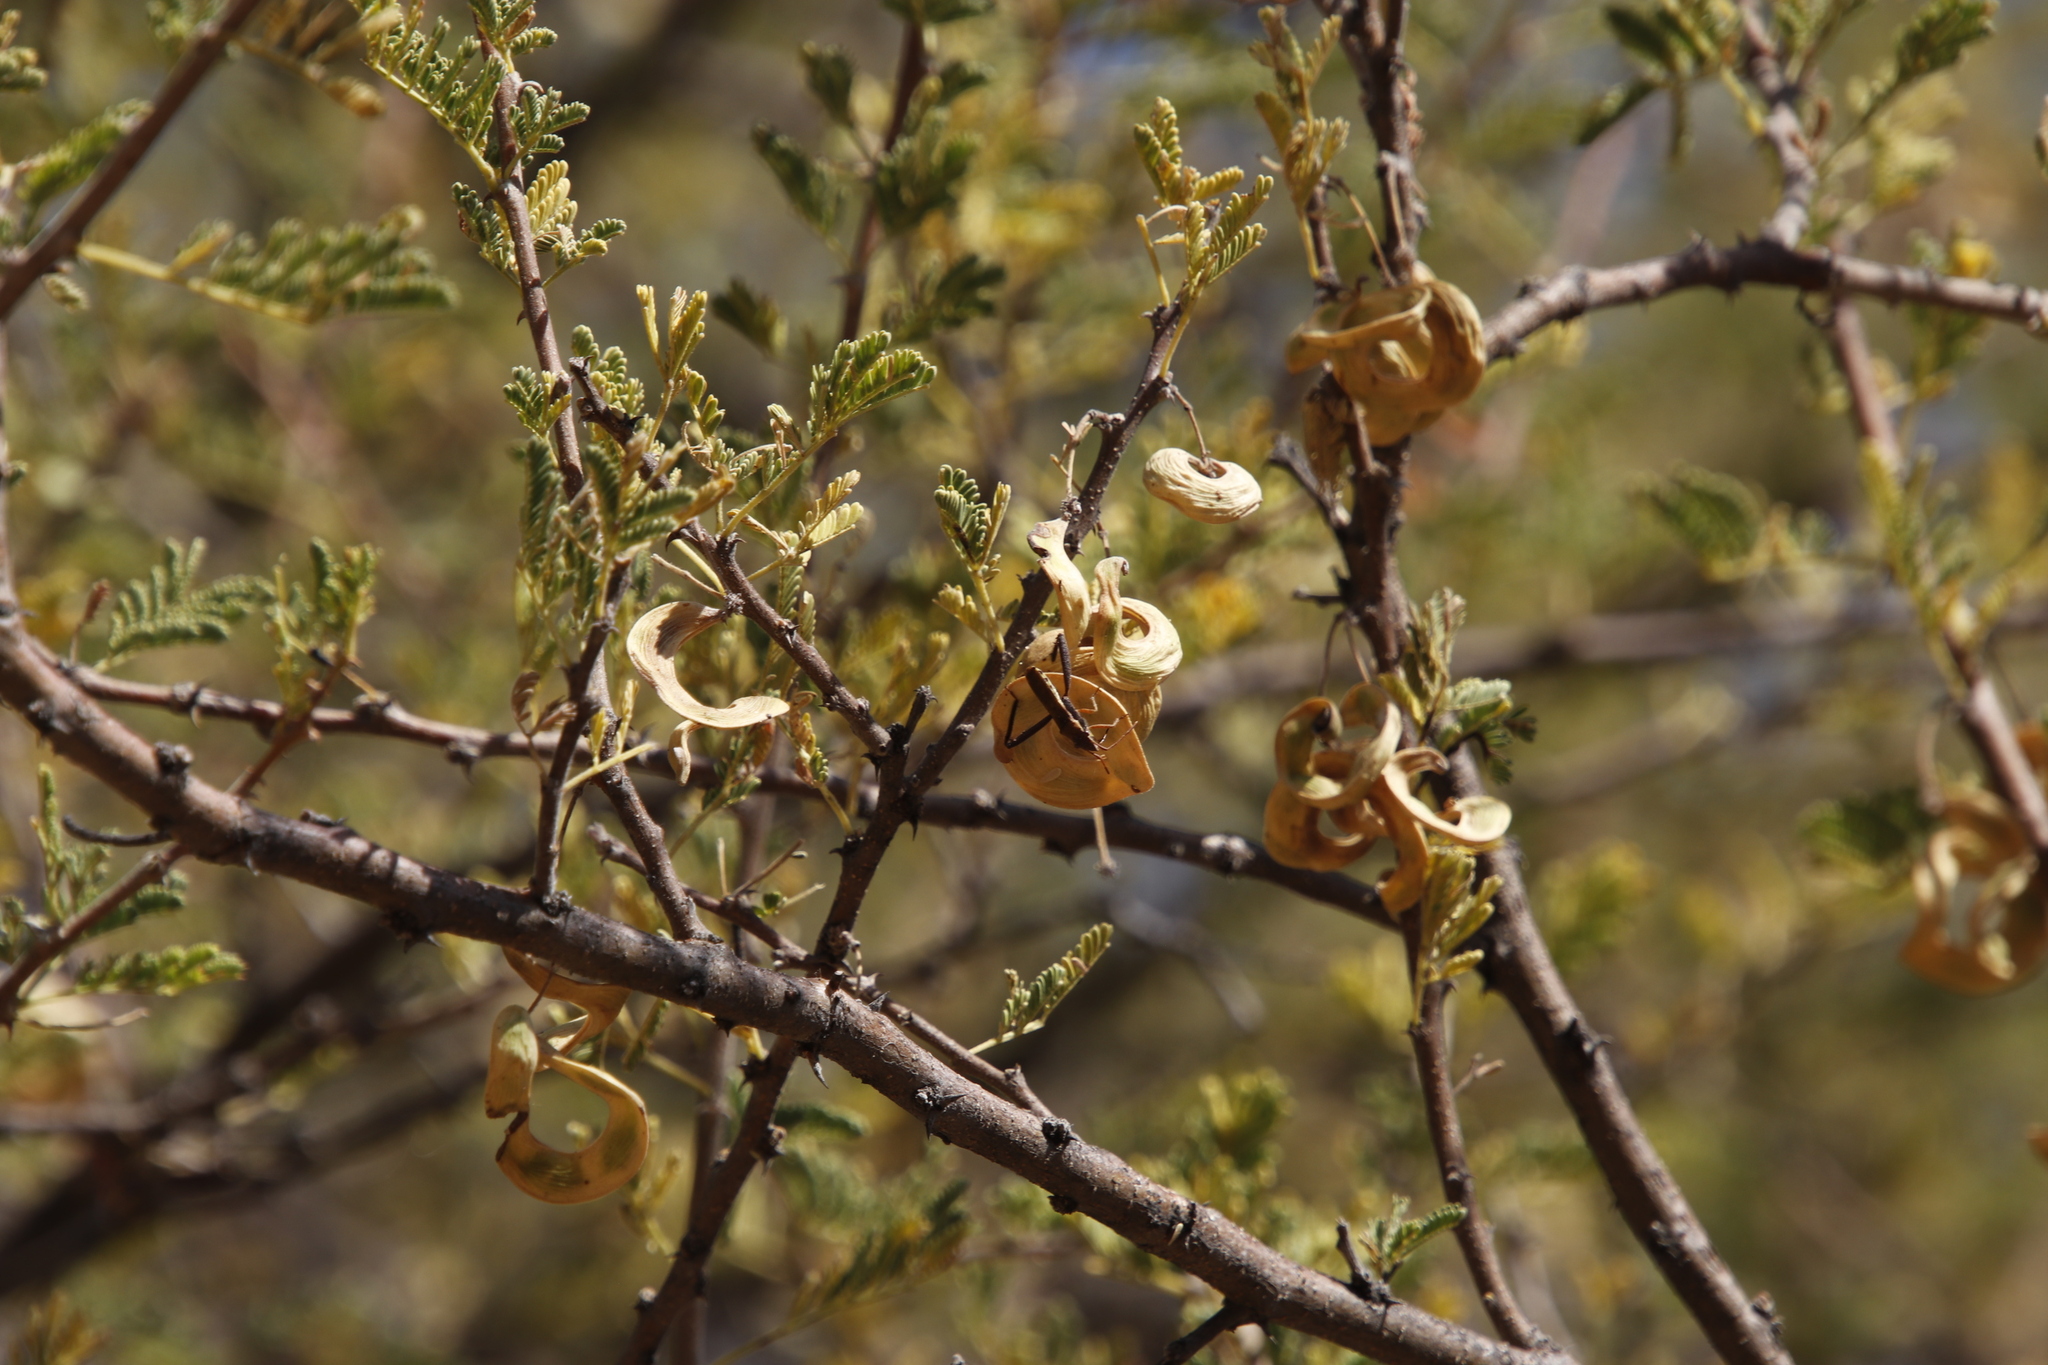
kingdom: Plantae
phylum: Tracheophyta
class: Magnoliopsida
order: Fabales
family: Fabaceae
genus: Vachellia
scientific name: Vachellia tortilis
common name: Umbrella thorn acacia
